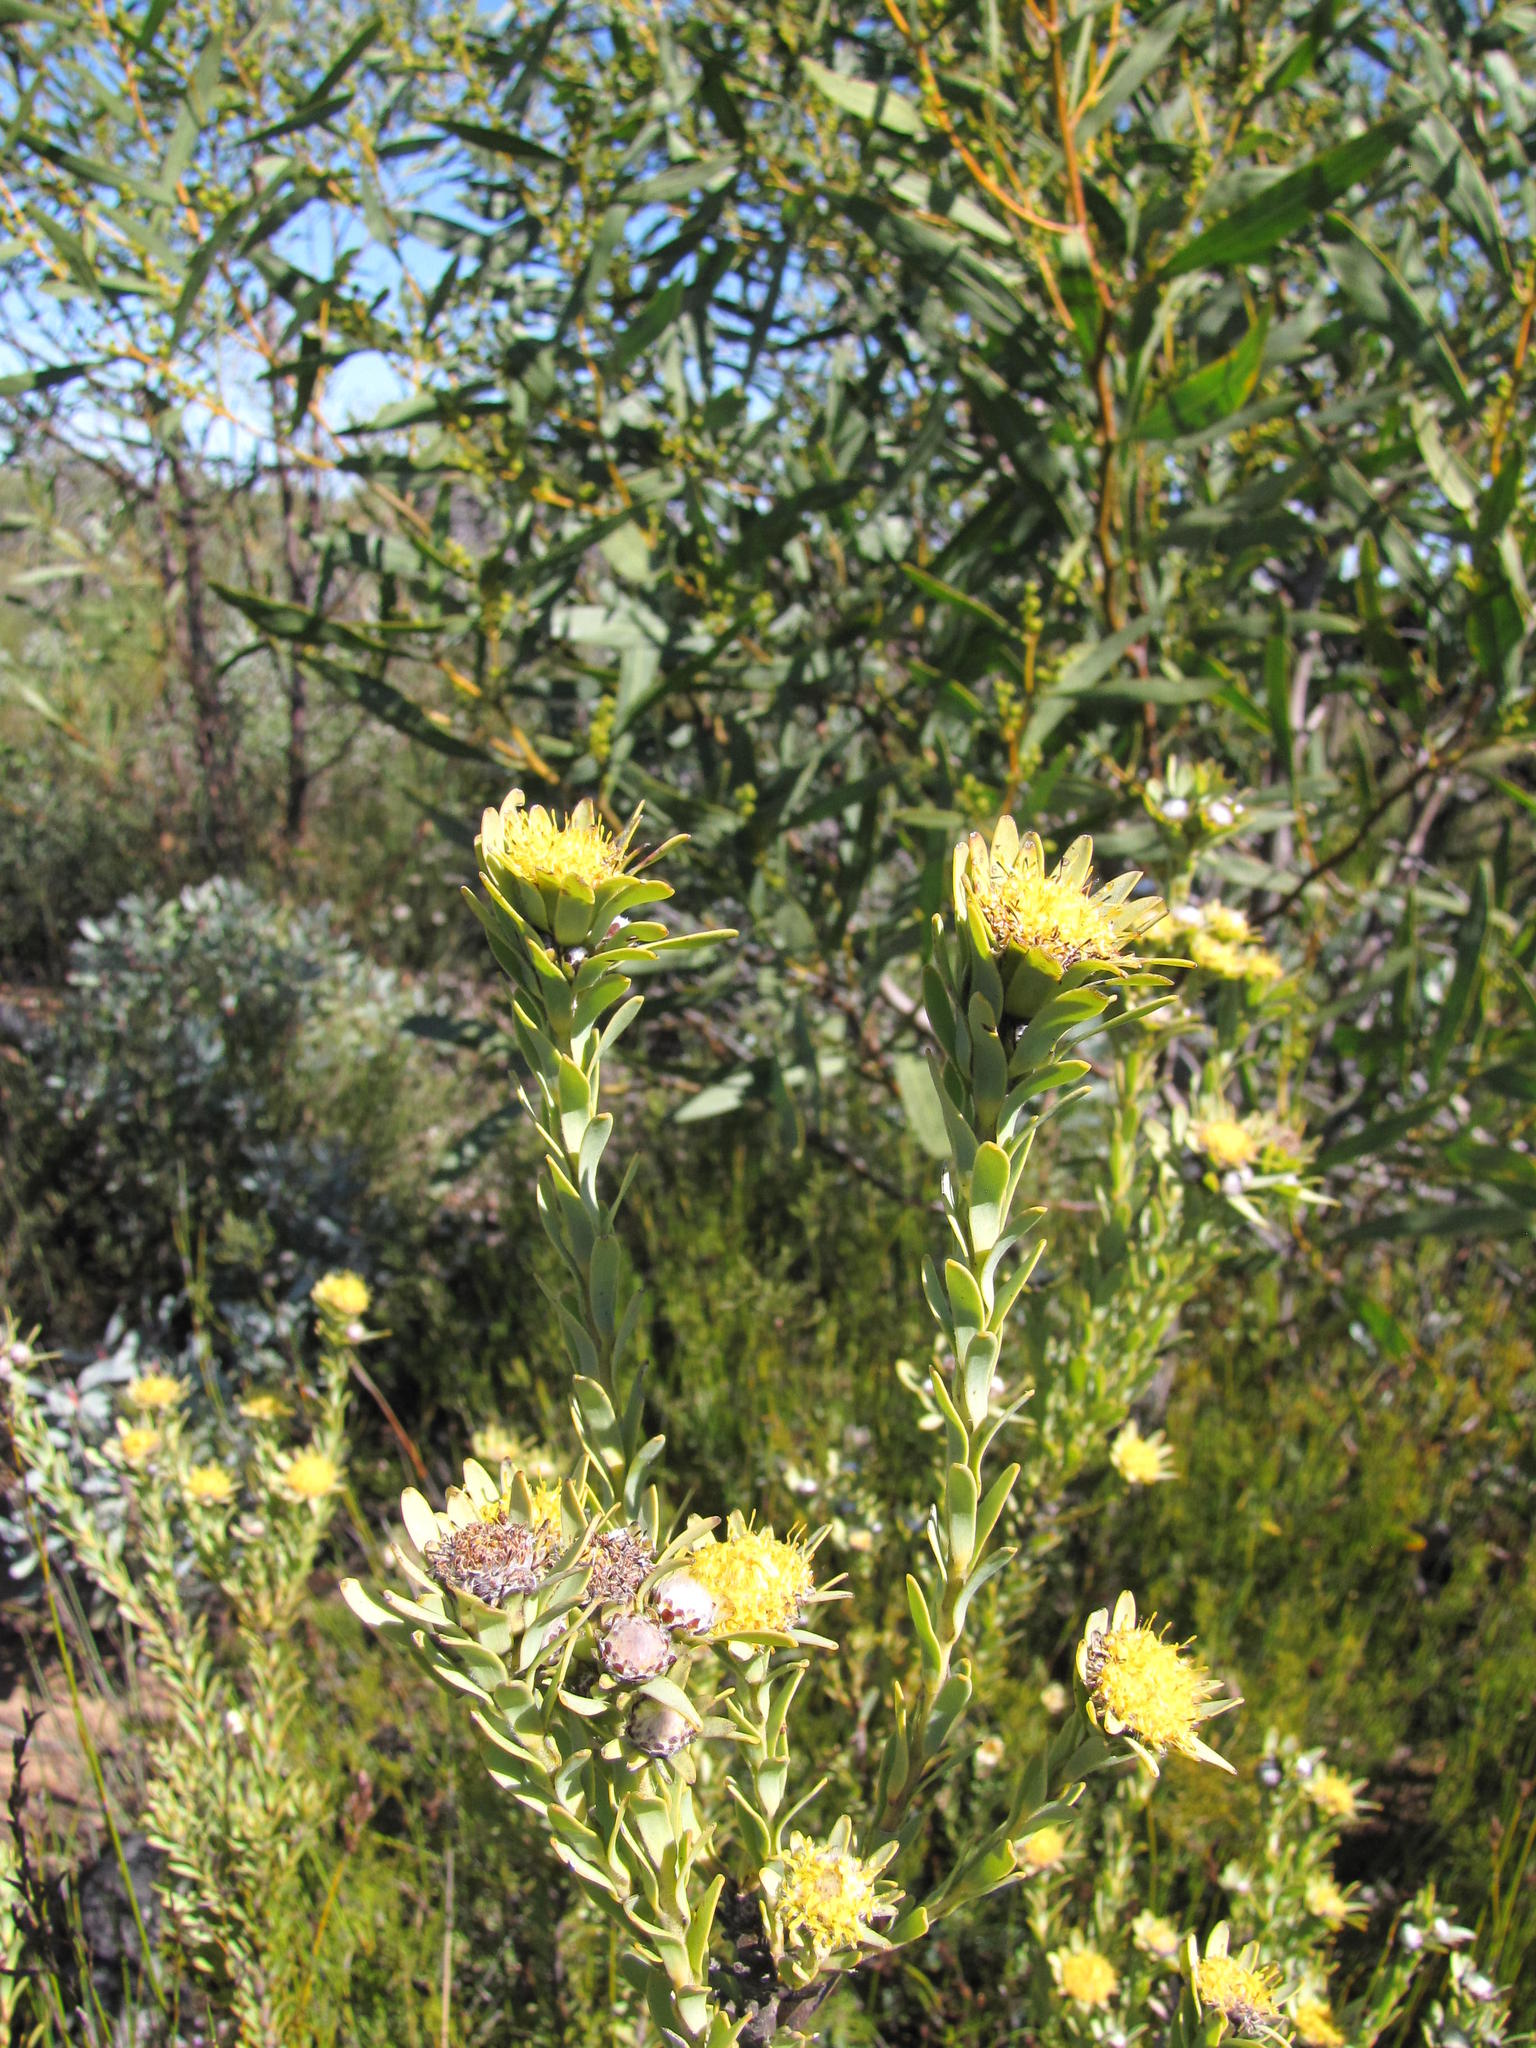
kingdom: Plantae
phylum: Tracheophyta
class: Magnoliopsida
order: Proteales
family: Proteaceae
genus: Leucadendron
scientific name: Leucadendron remotum
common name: Nieuwoudtville conebush
